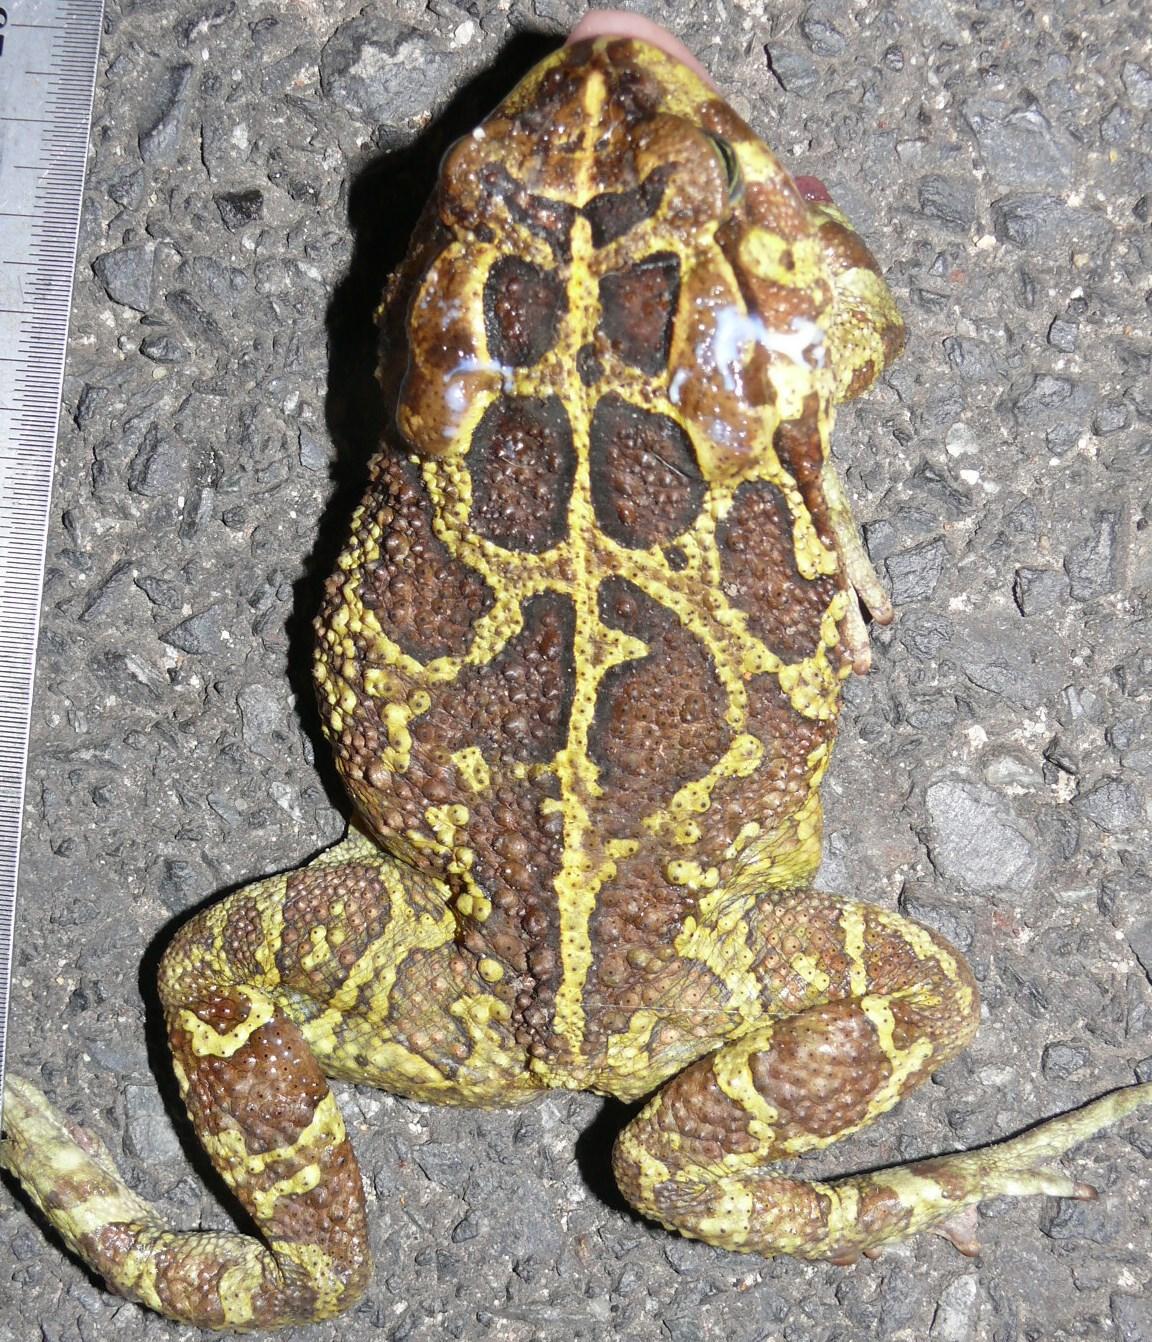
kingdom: Animalia
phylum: Chordata
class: Amphibia
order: Anura
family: Bufonidae
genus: Sclerophrys
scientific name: Sclerophrys pantherina
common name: Panther toad
